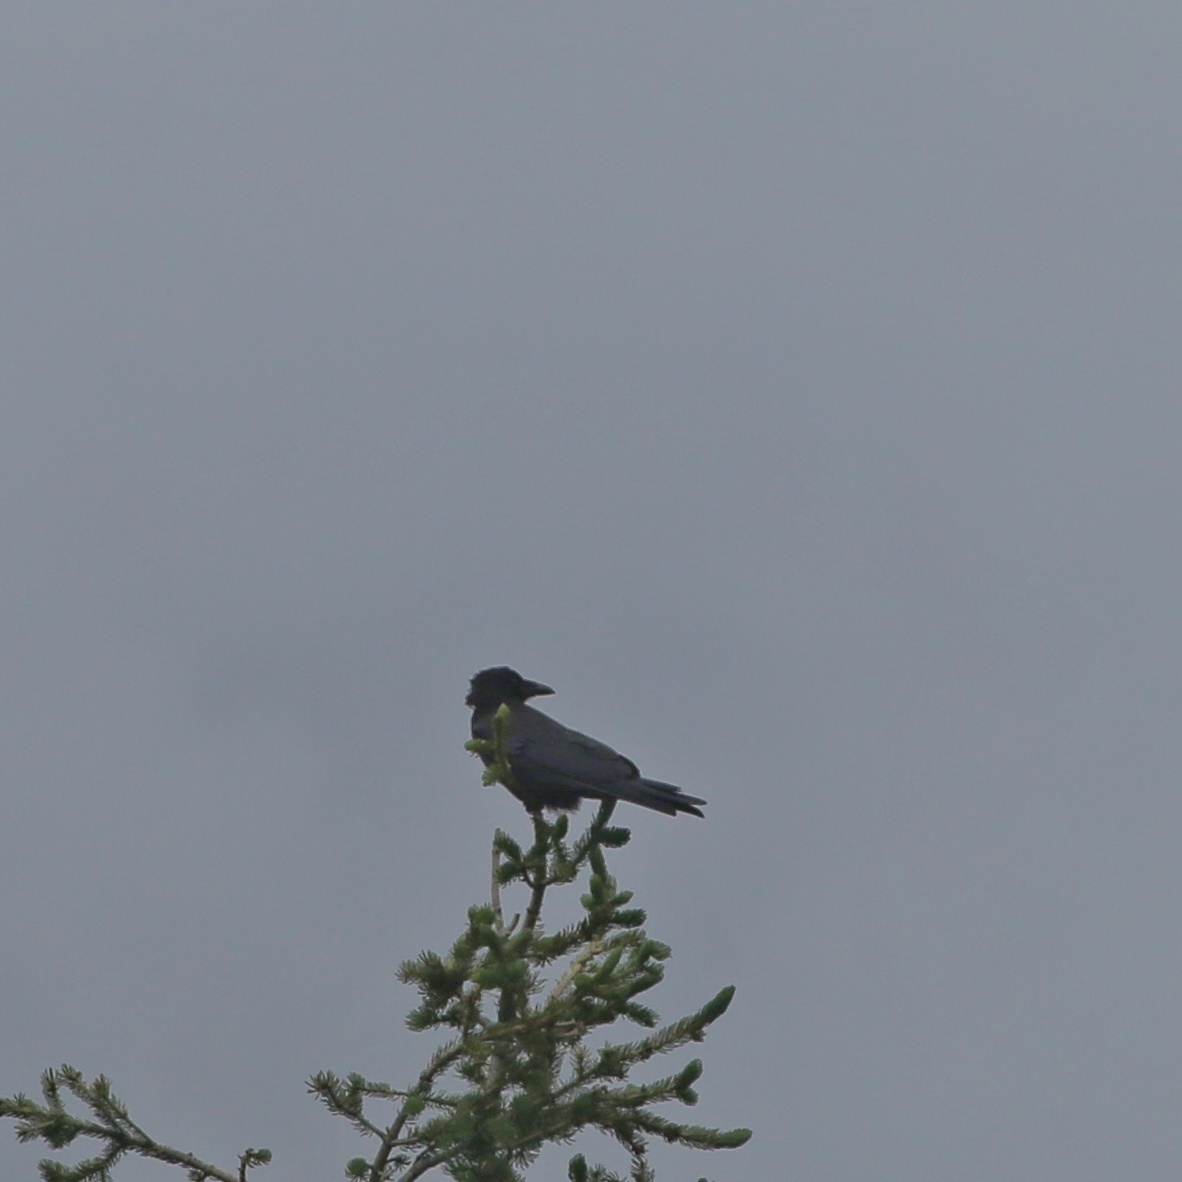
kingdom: Animalia
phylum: Chordata
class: Aves
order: Passeriformes
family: Corvidae
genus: Corvus
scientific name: Corvus corone
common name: Carrion crow
